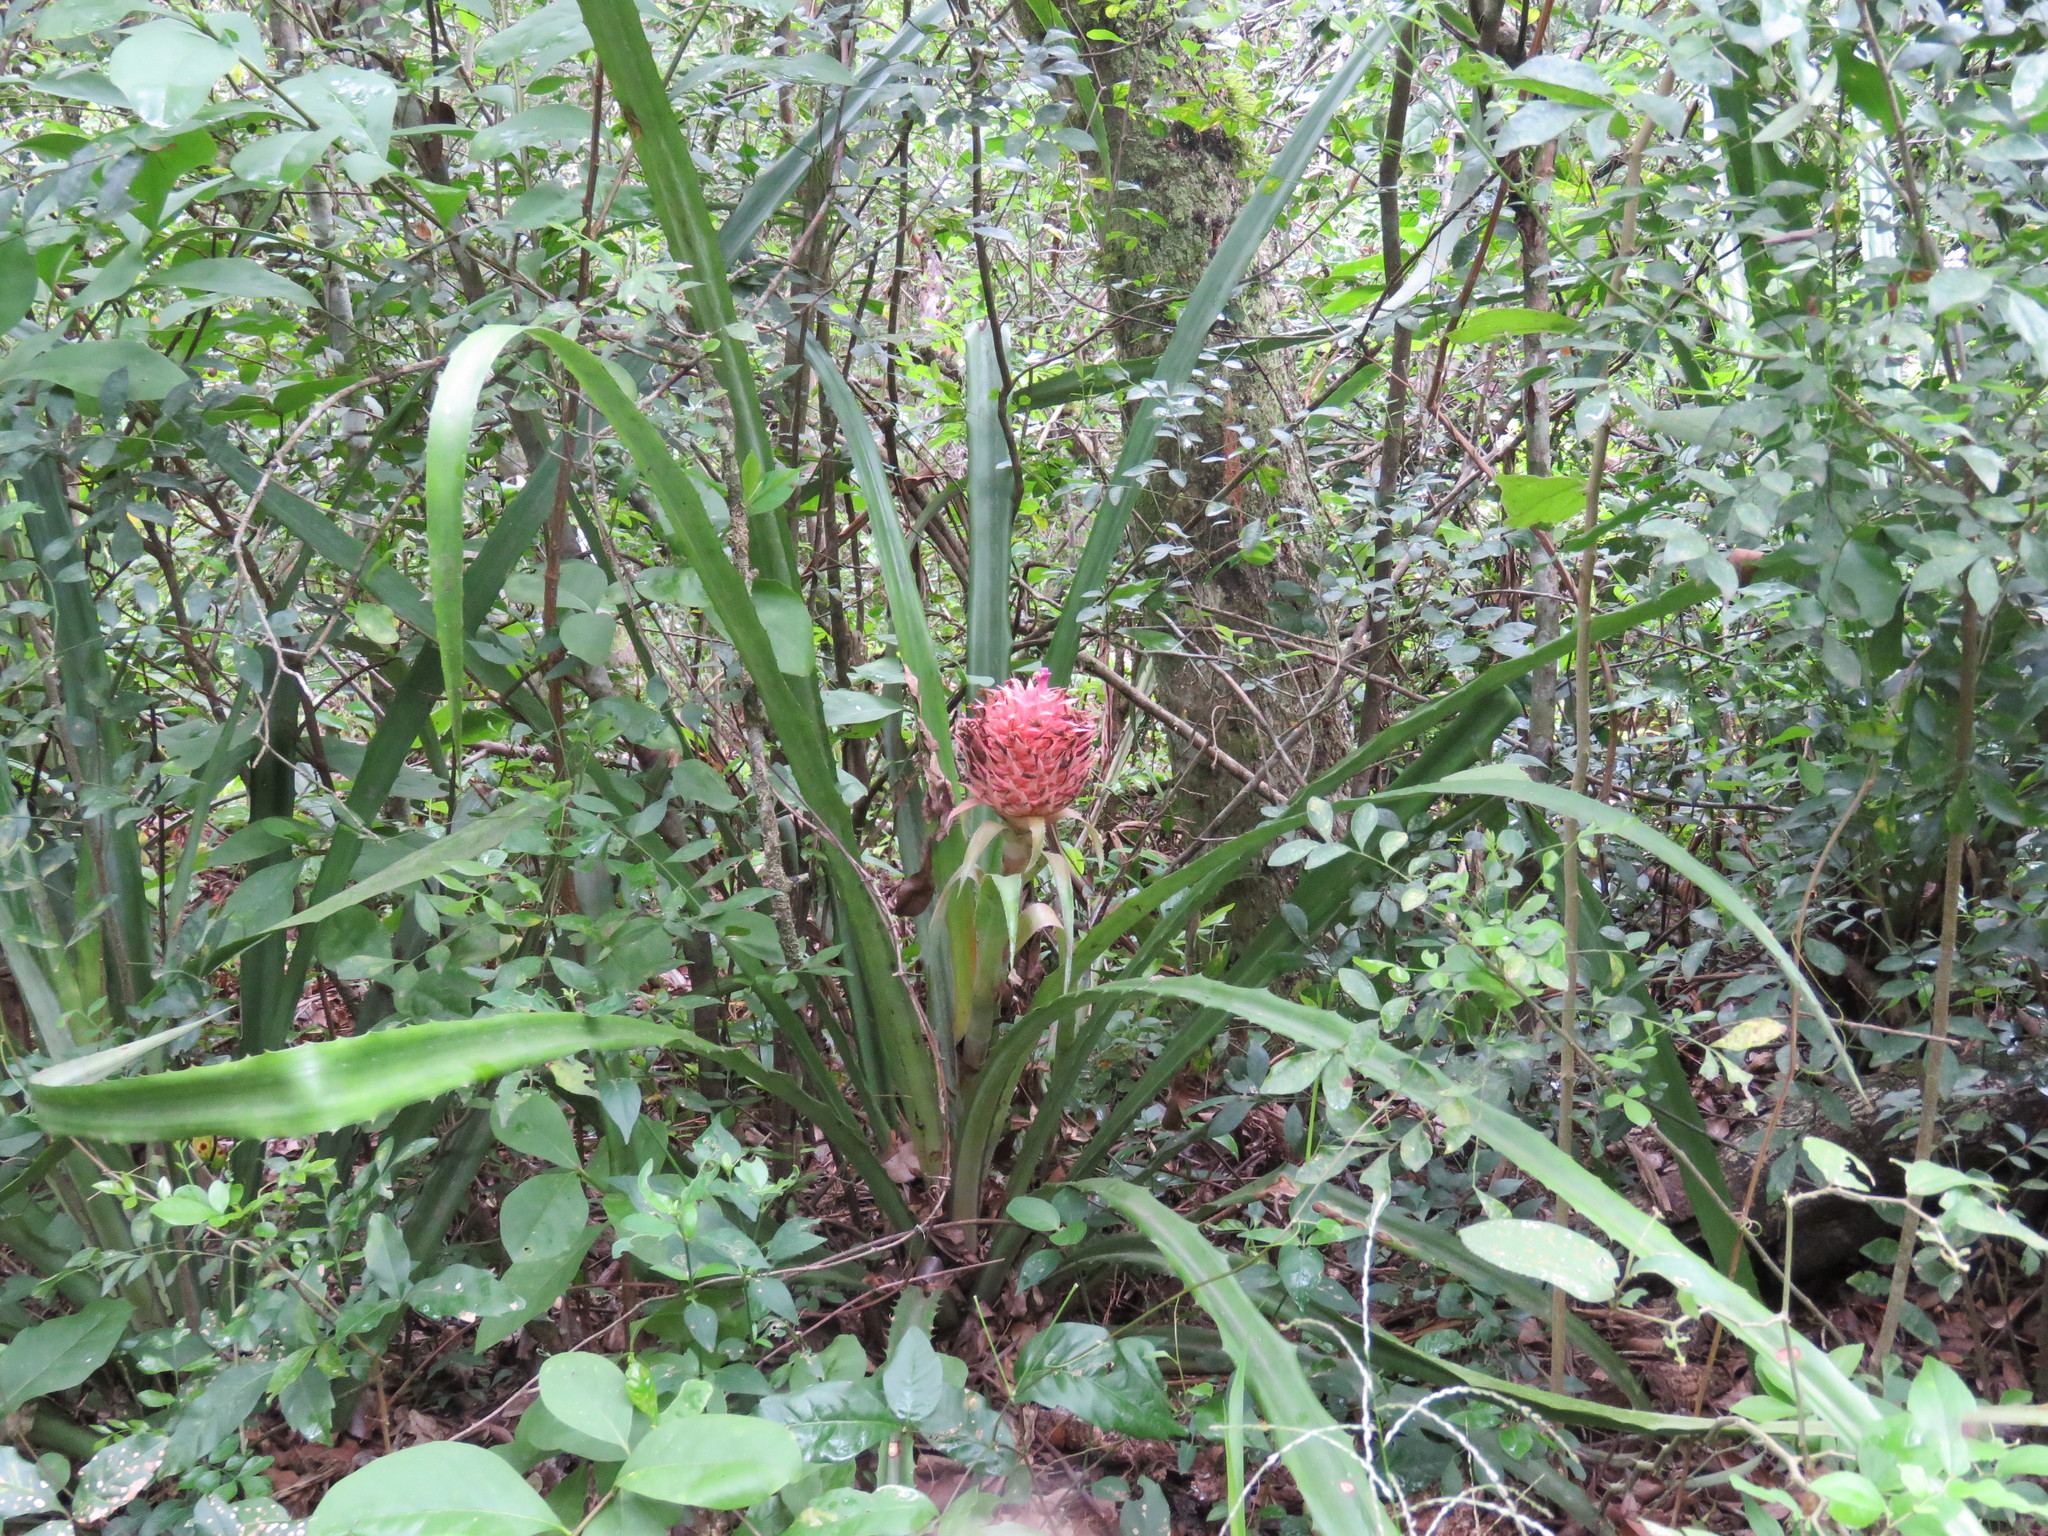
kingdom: Plantae
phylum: Tracheophyta
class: Liliopsida
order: Poales
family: Bromeliaceae
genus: Ananas
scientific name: Ananas macrodontes
